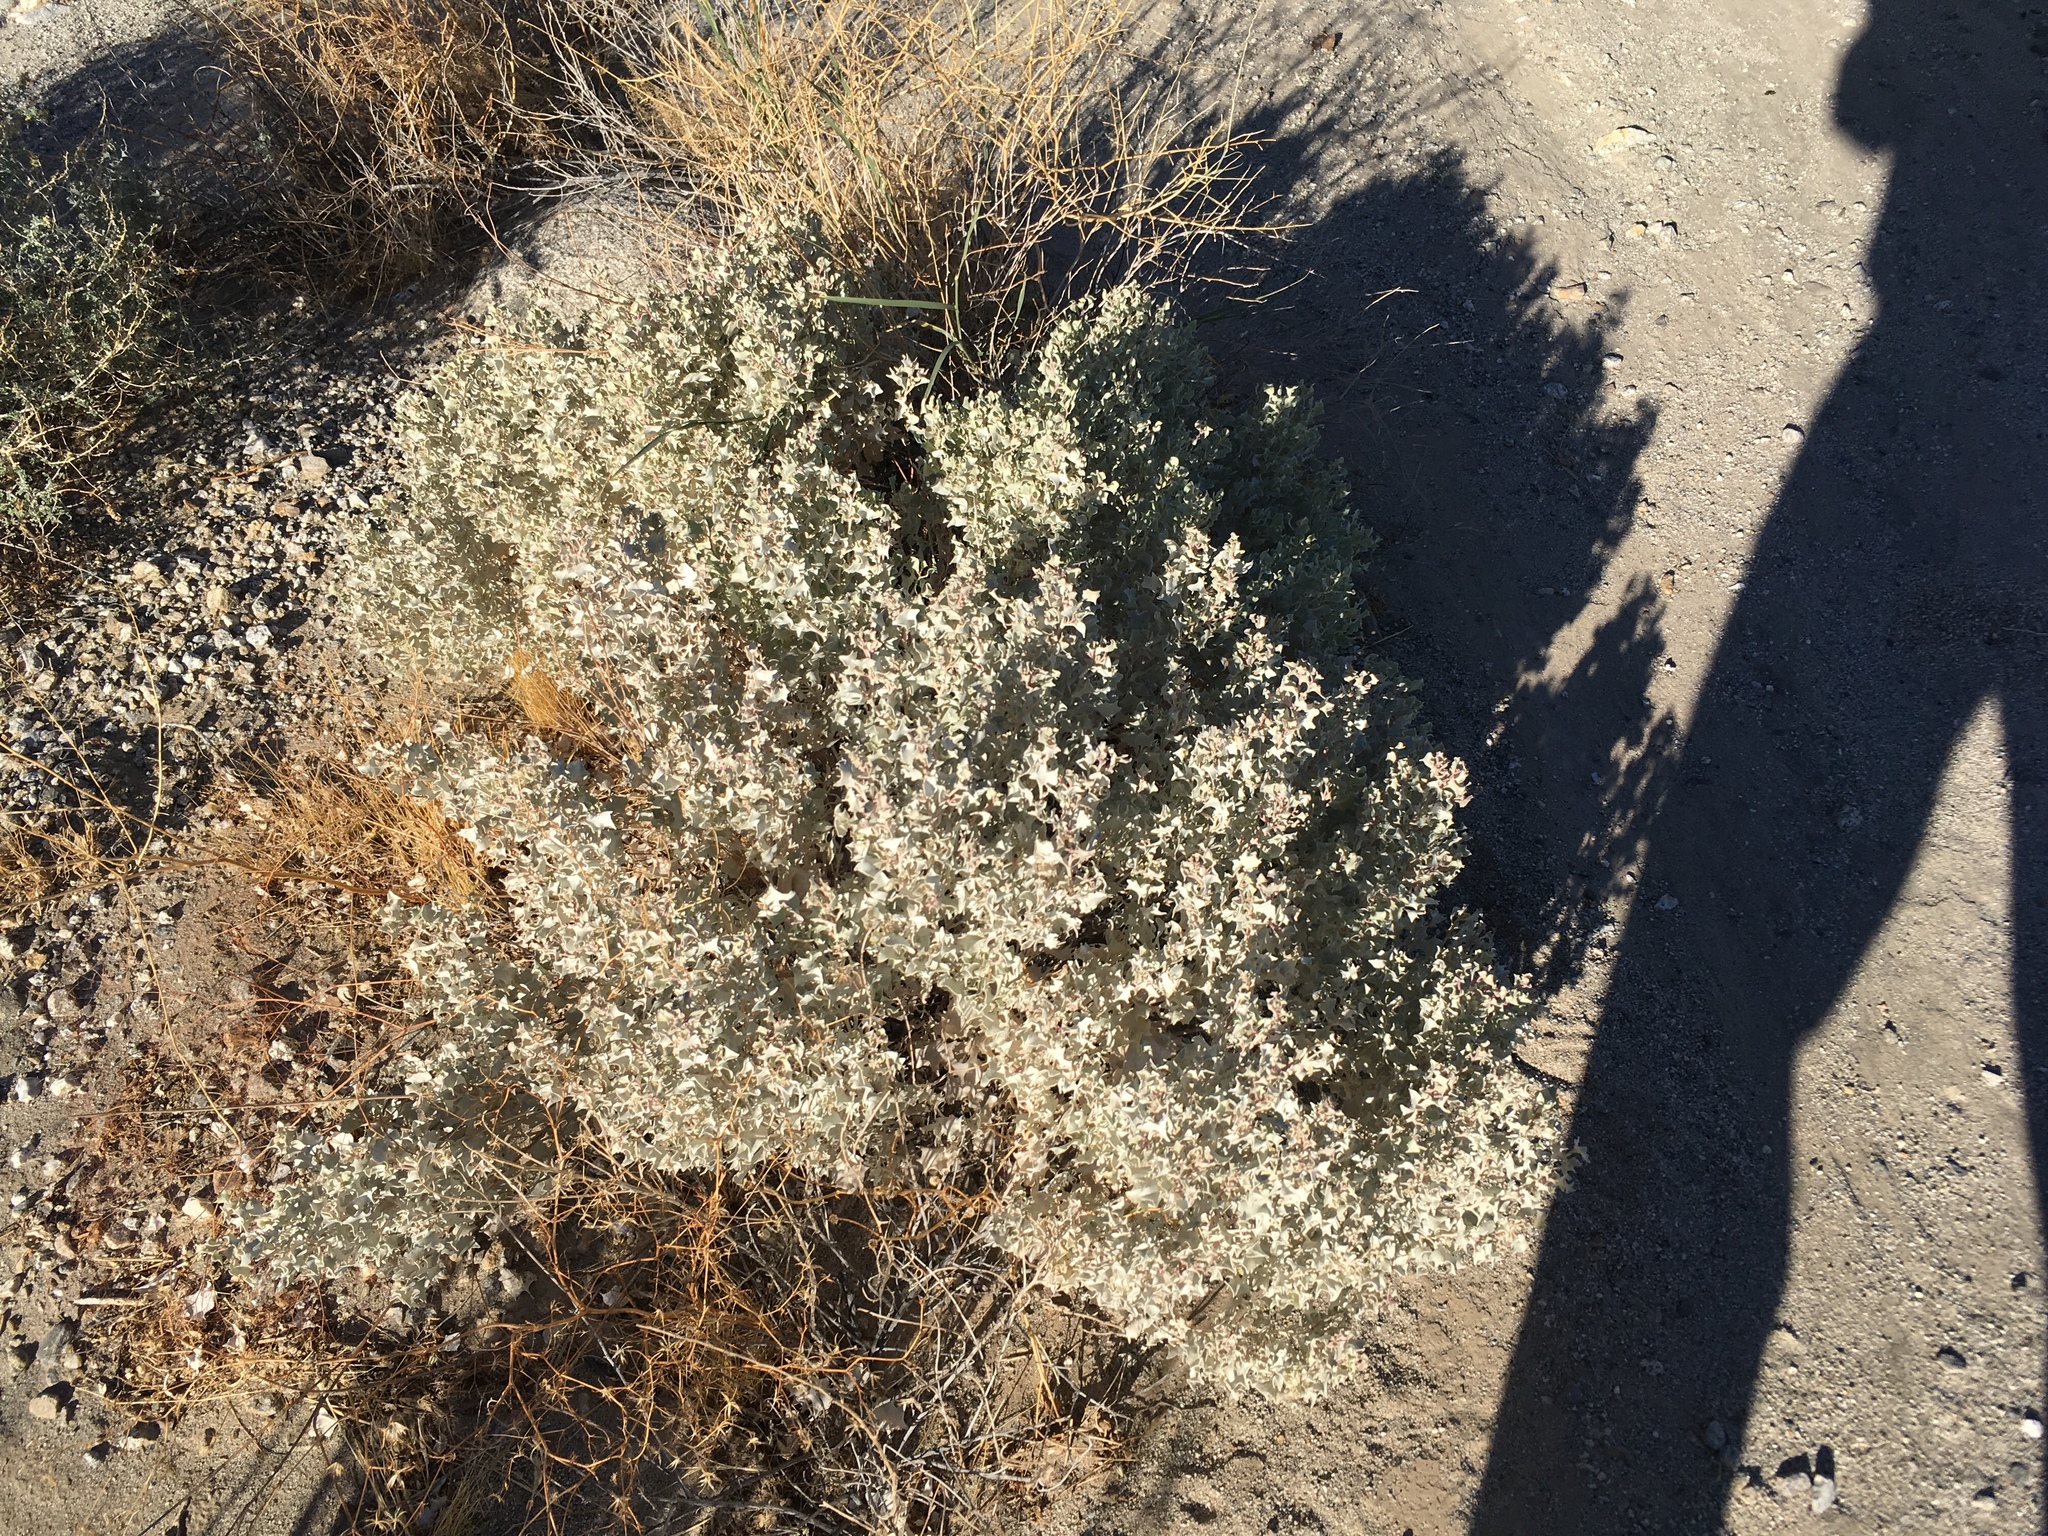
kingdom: Plantae
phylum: Tracheophyta
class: Magnoliopsida
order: Caryophyllales
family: Amaranthaceae
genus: Atriplex
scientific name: Atriplex hymenelytra
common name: Desert-holly
